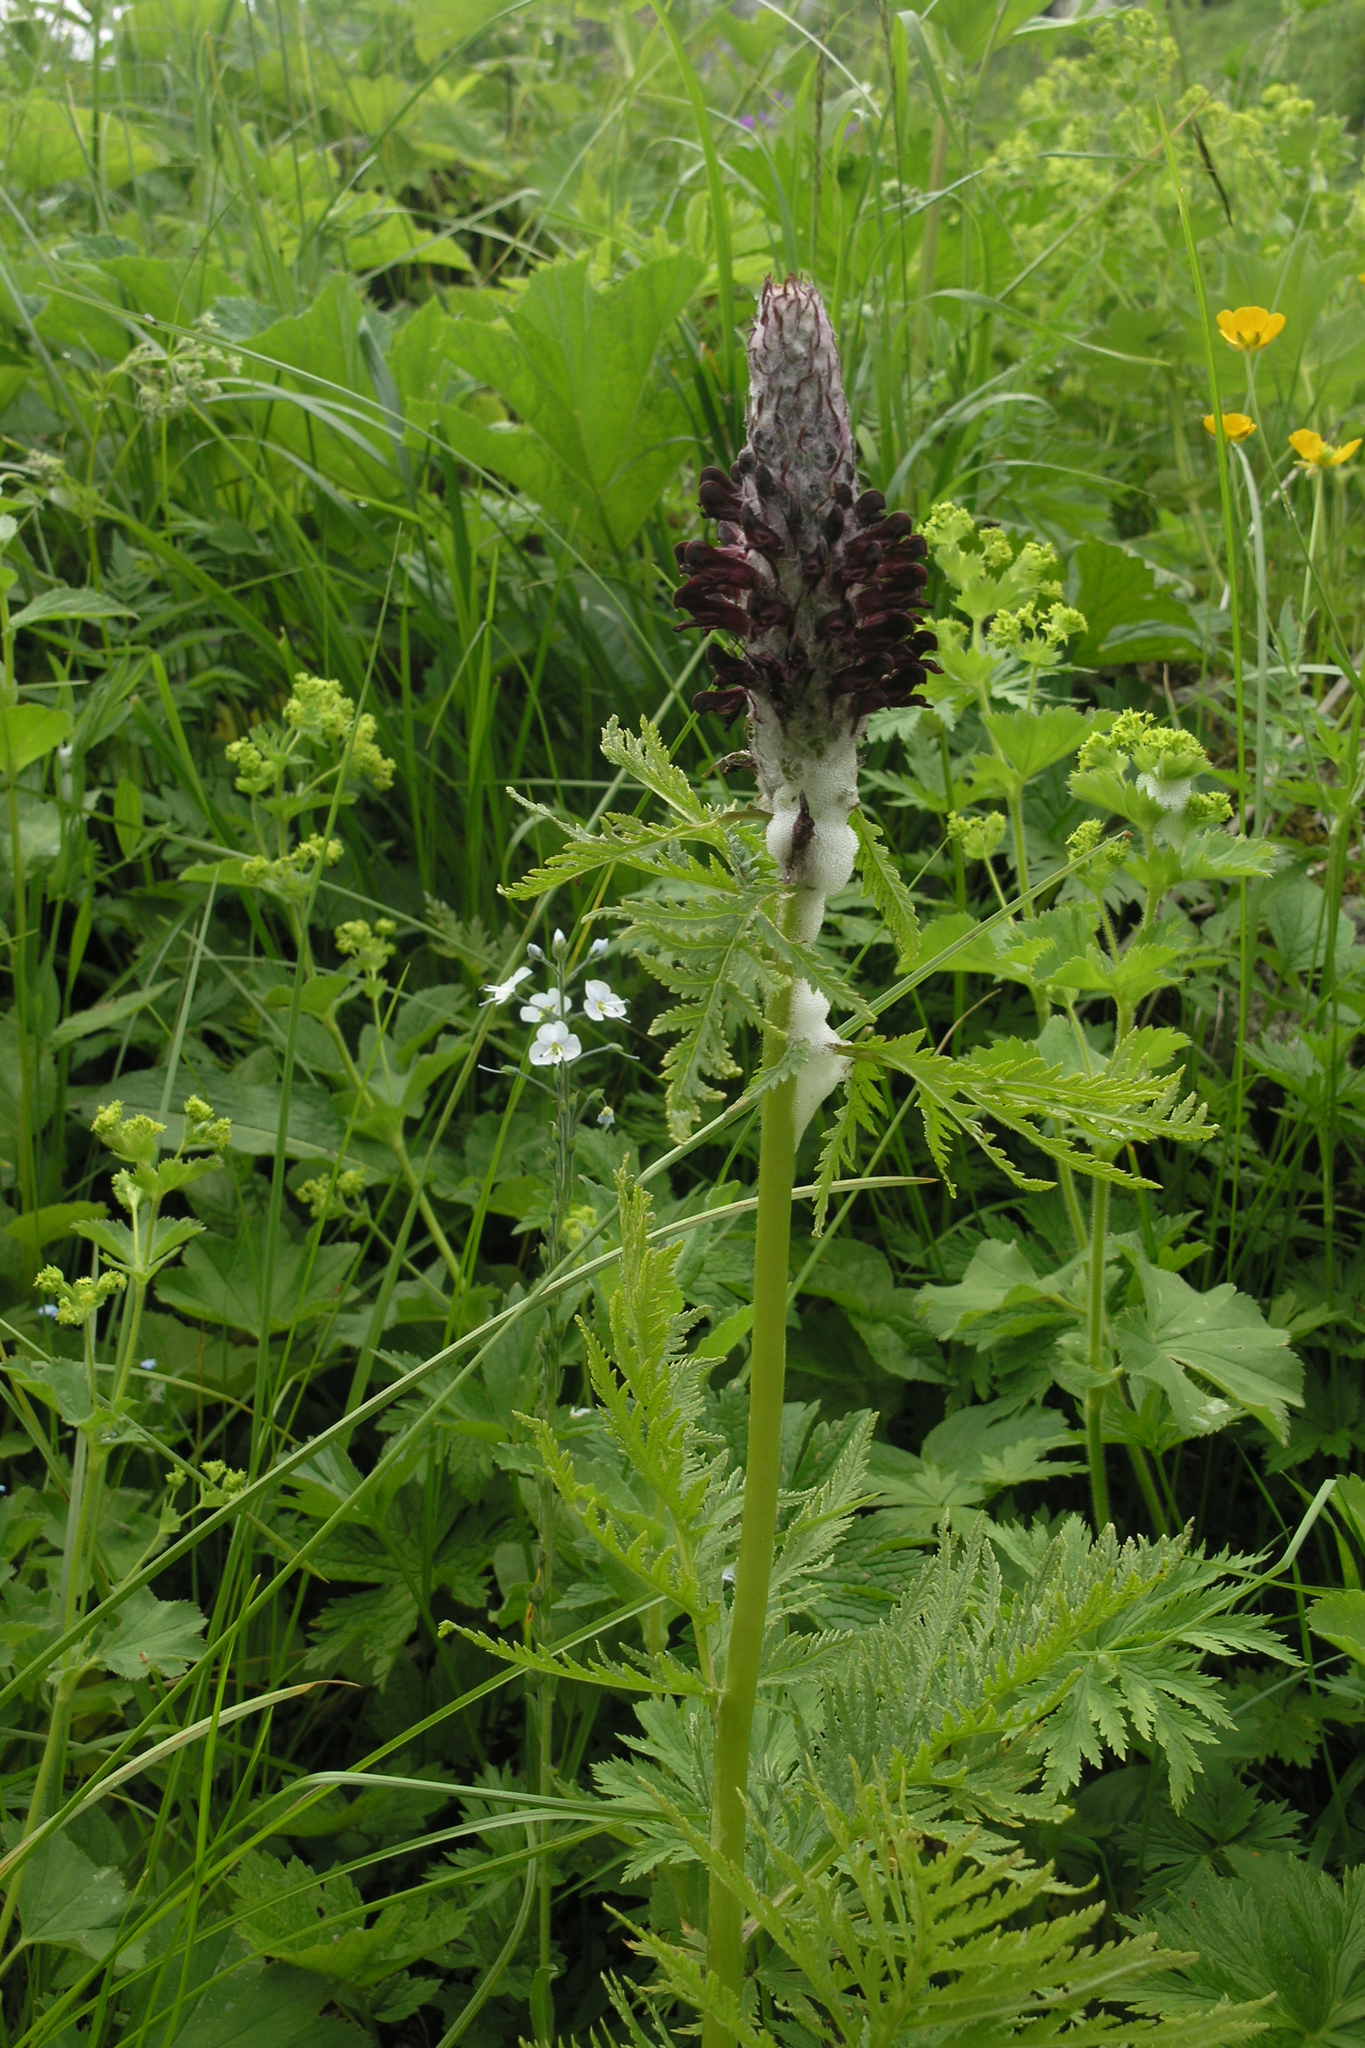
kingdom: Plantae
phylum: Tracheophyta
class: Magnoliopsida
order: Lamiales
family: Orobanchaceae
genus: Pedicularis
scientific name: Pedicularis atropurpurea
